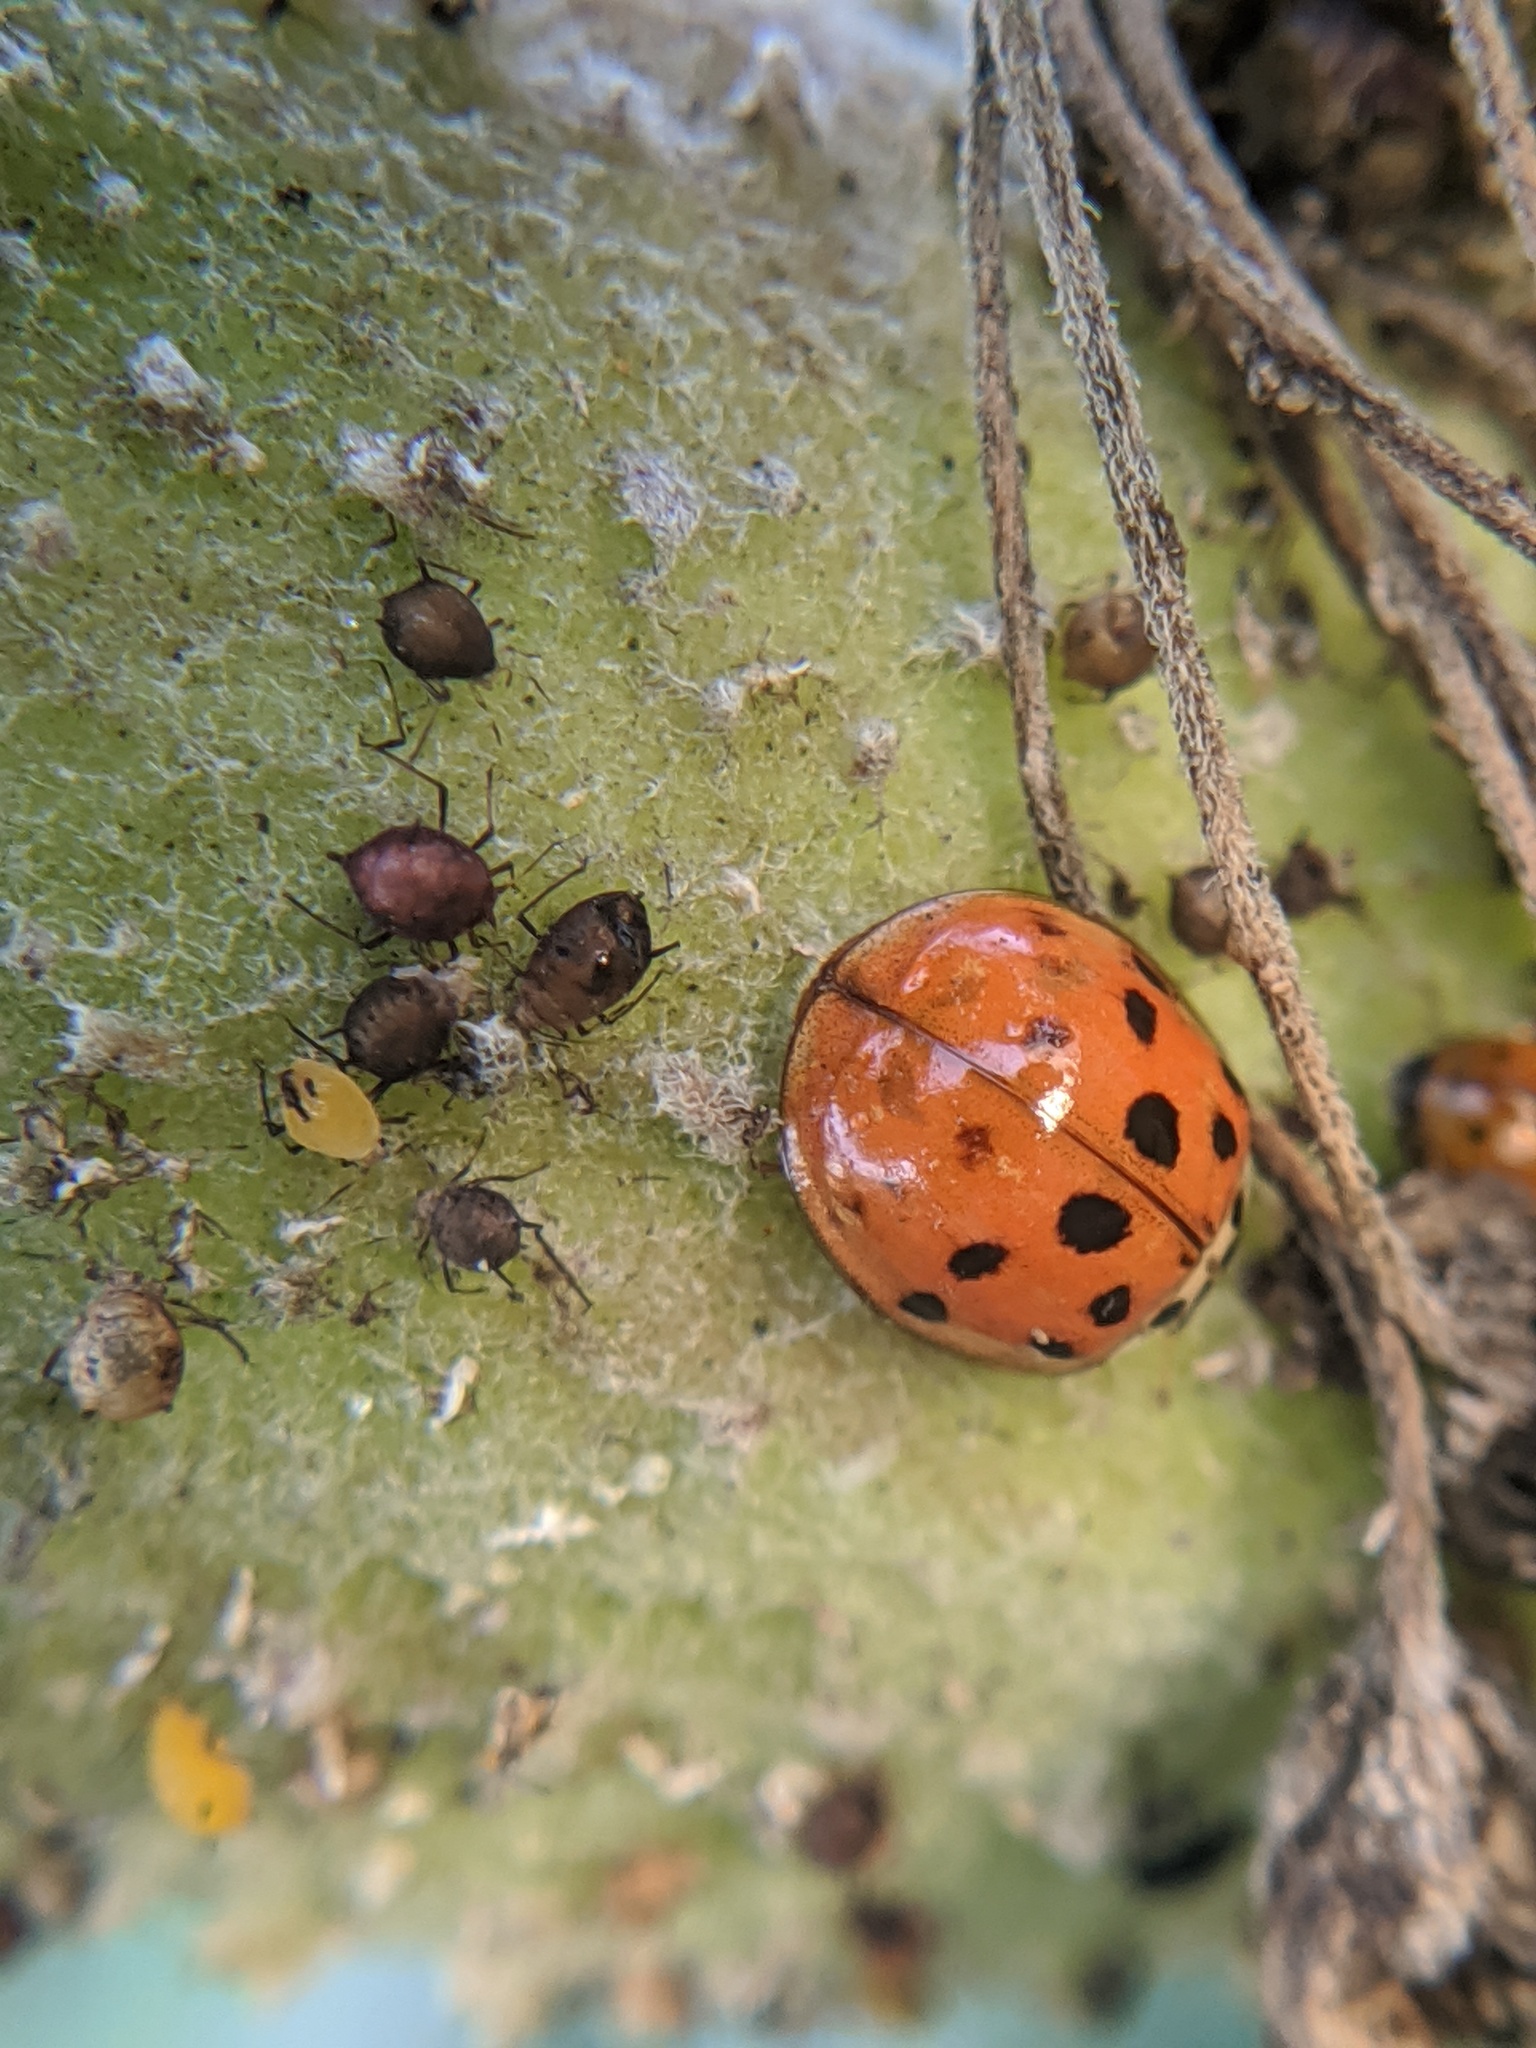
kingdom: Animalia
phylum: Arthropoda
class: Insecta
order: Hemiptera
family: Aphididae
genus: Aphis
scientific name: Aphis nerii
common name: Oleander aphid
